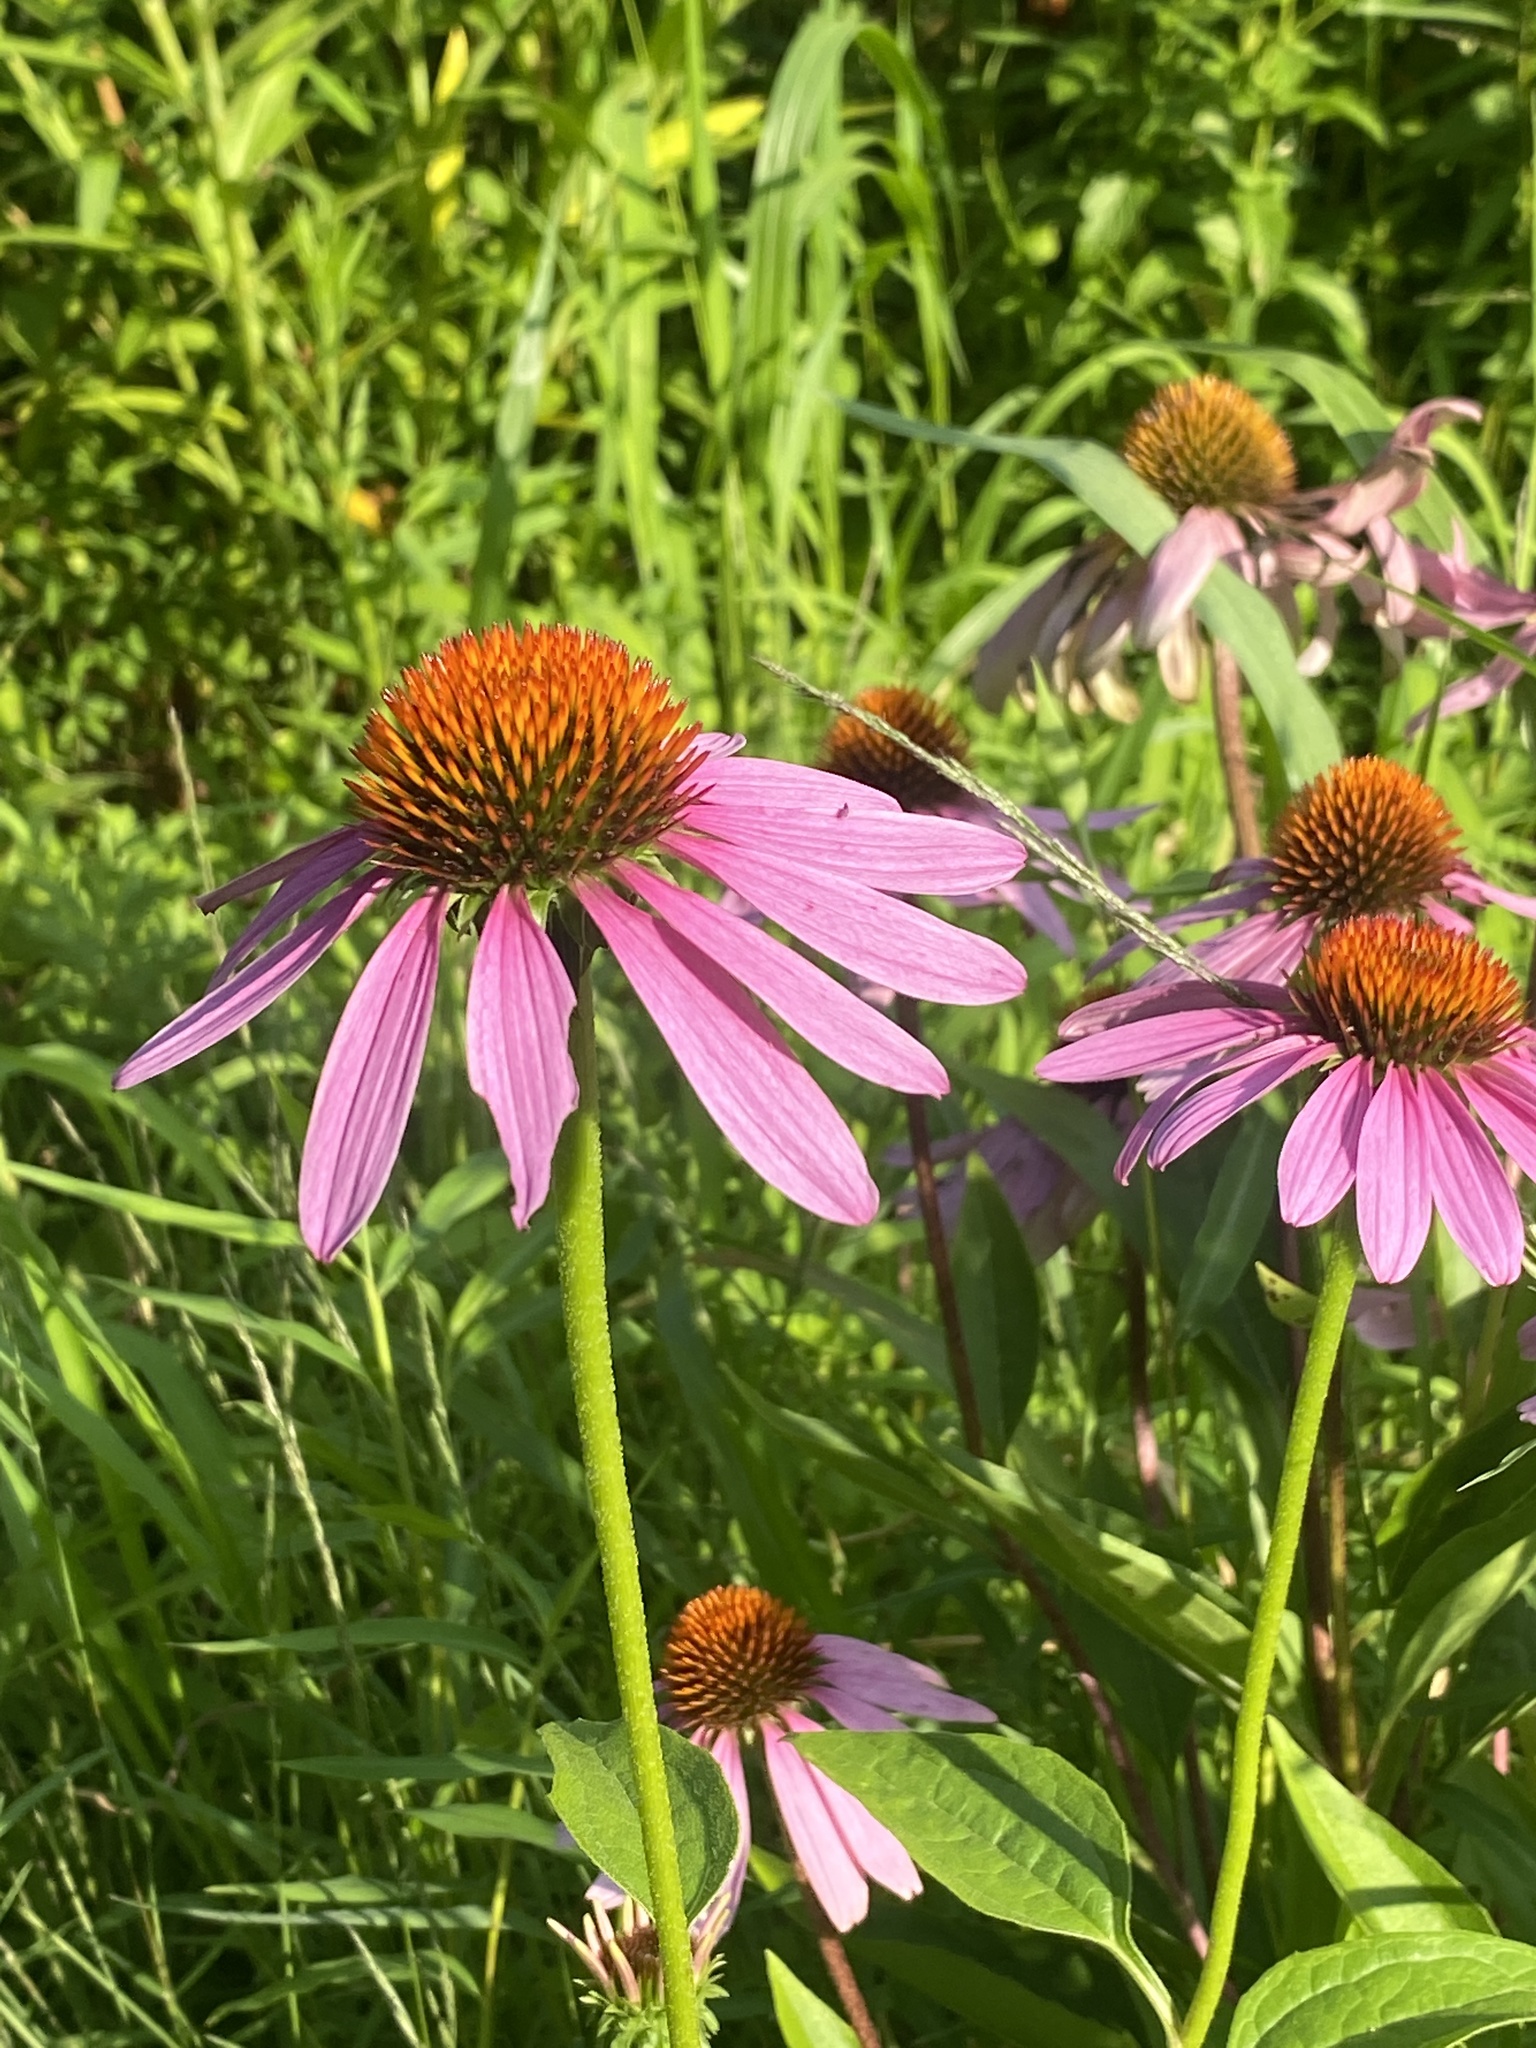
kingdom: Plantae
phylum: Tracheophyta
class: Magnoliopsida
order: Asterales
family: Asteraceae
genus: Echinacea
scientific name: Echinacea purpurea
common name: Broad-leaved purple coneflower
